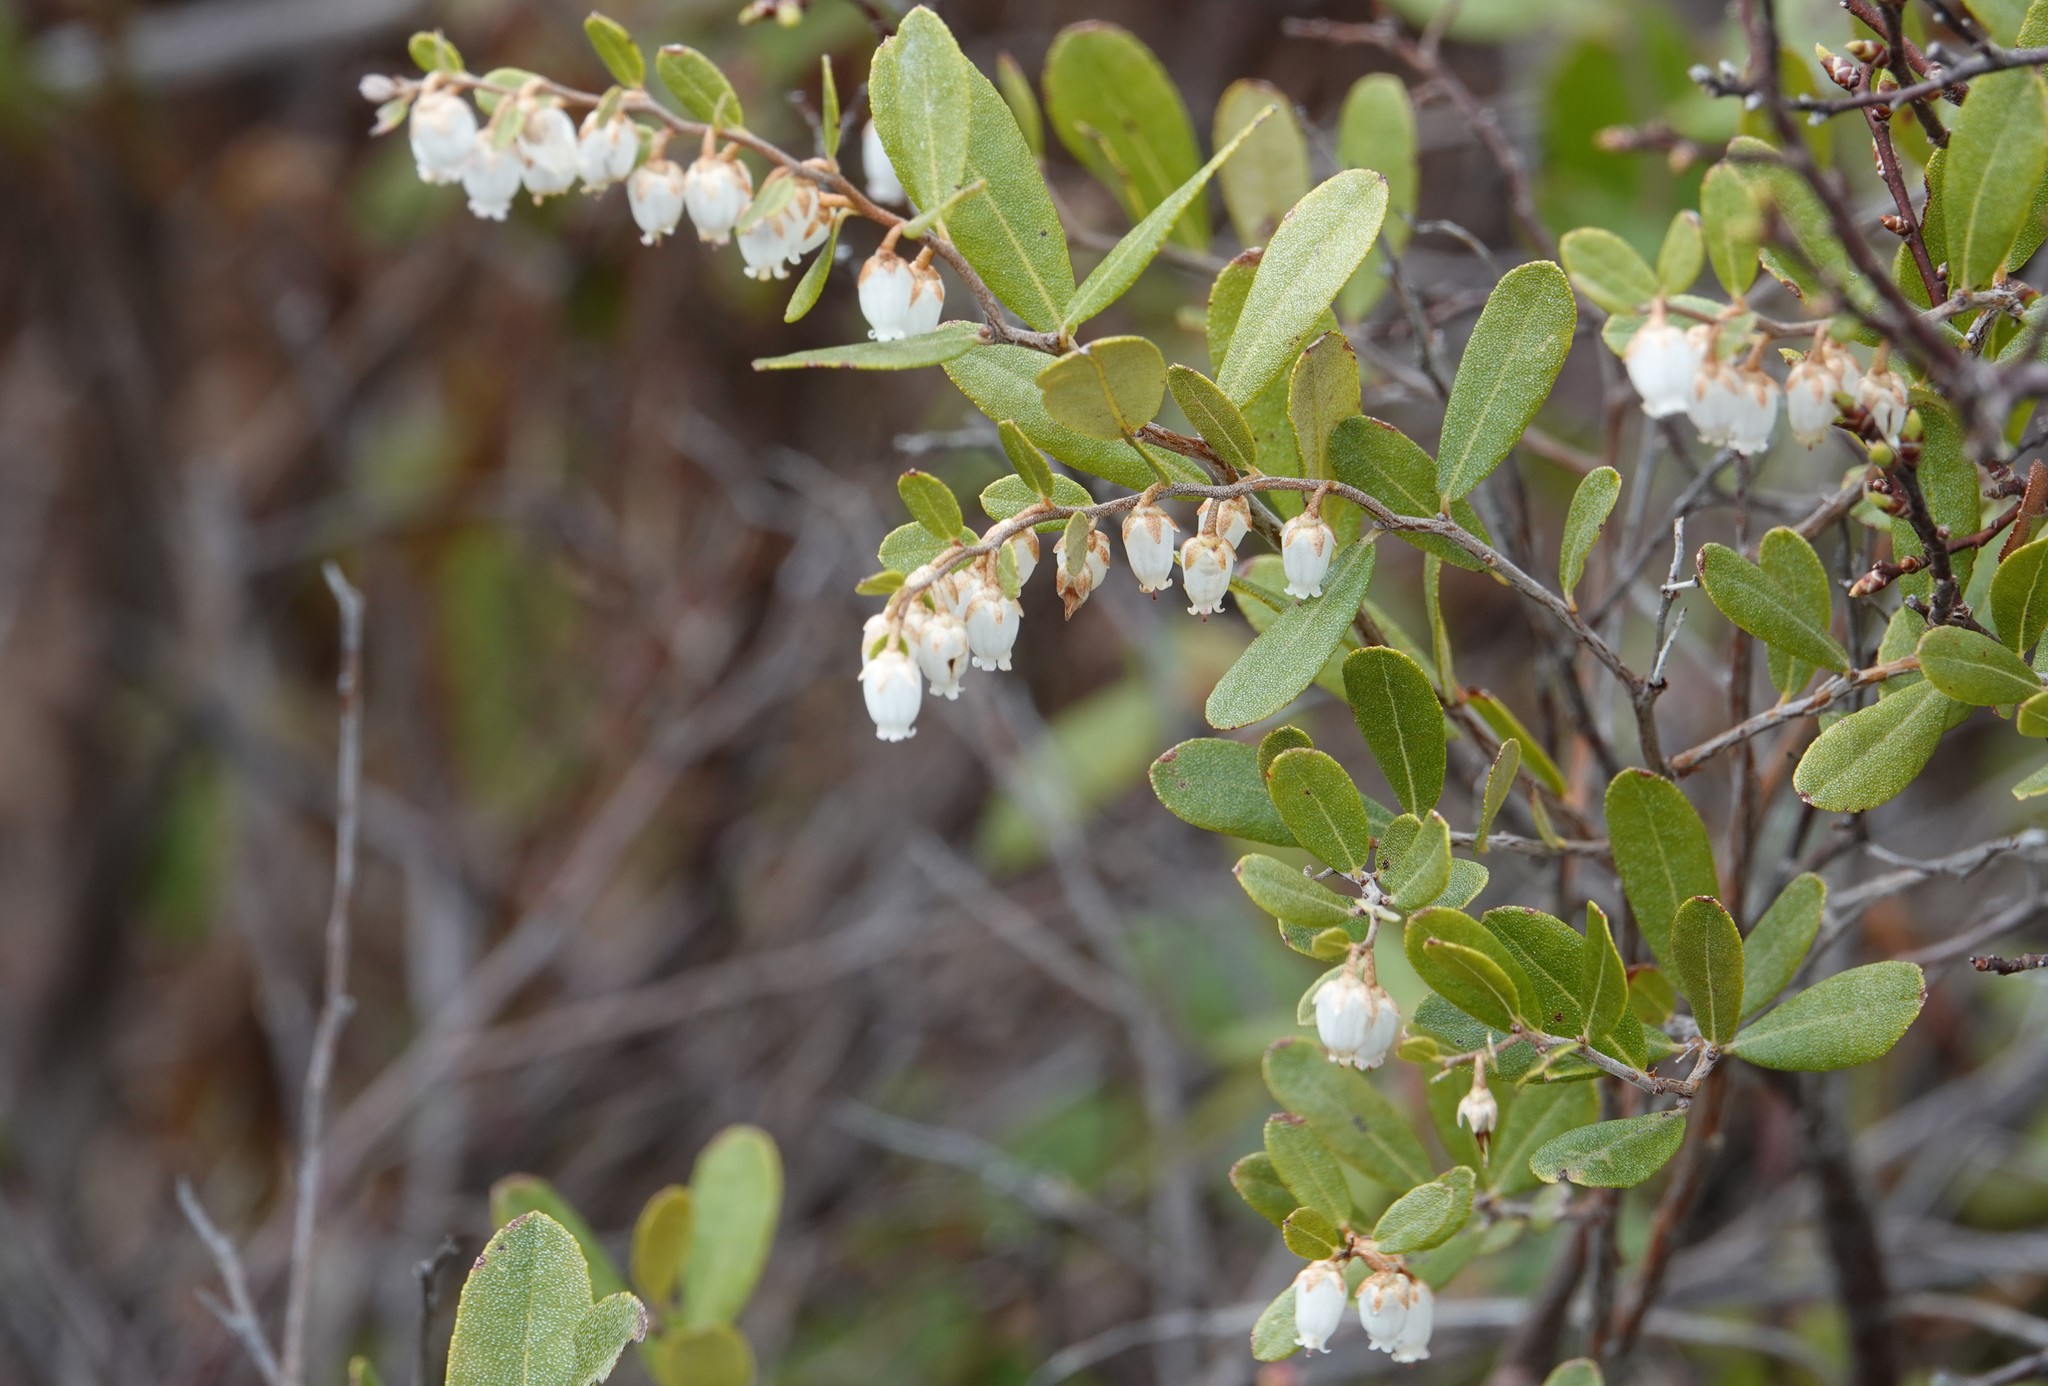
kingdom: Plantae
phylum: Tracheophyta
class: Magnoliopsida
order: Ericales
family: Ericaceae
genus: Chamaedaphne
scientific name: Chamaedaphne calyculata
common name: Leatherleaf
